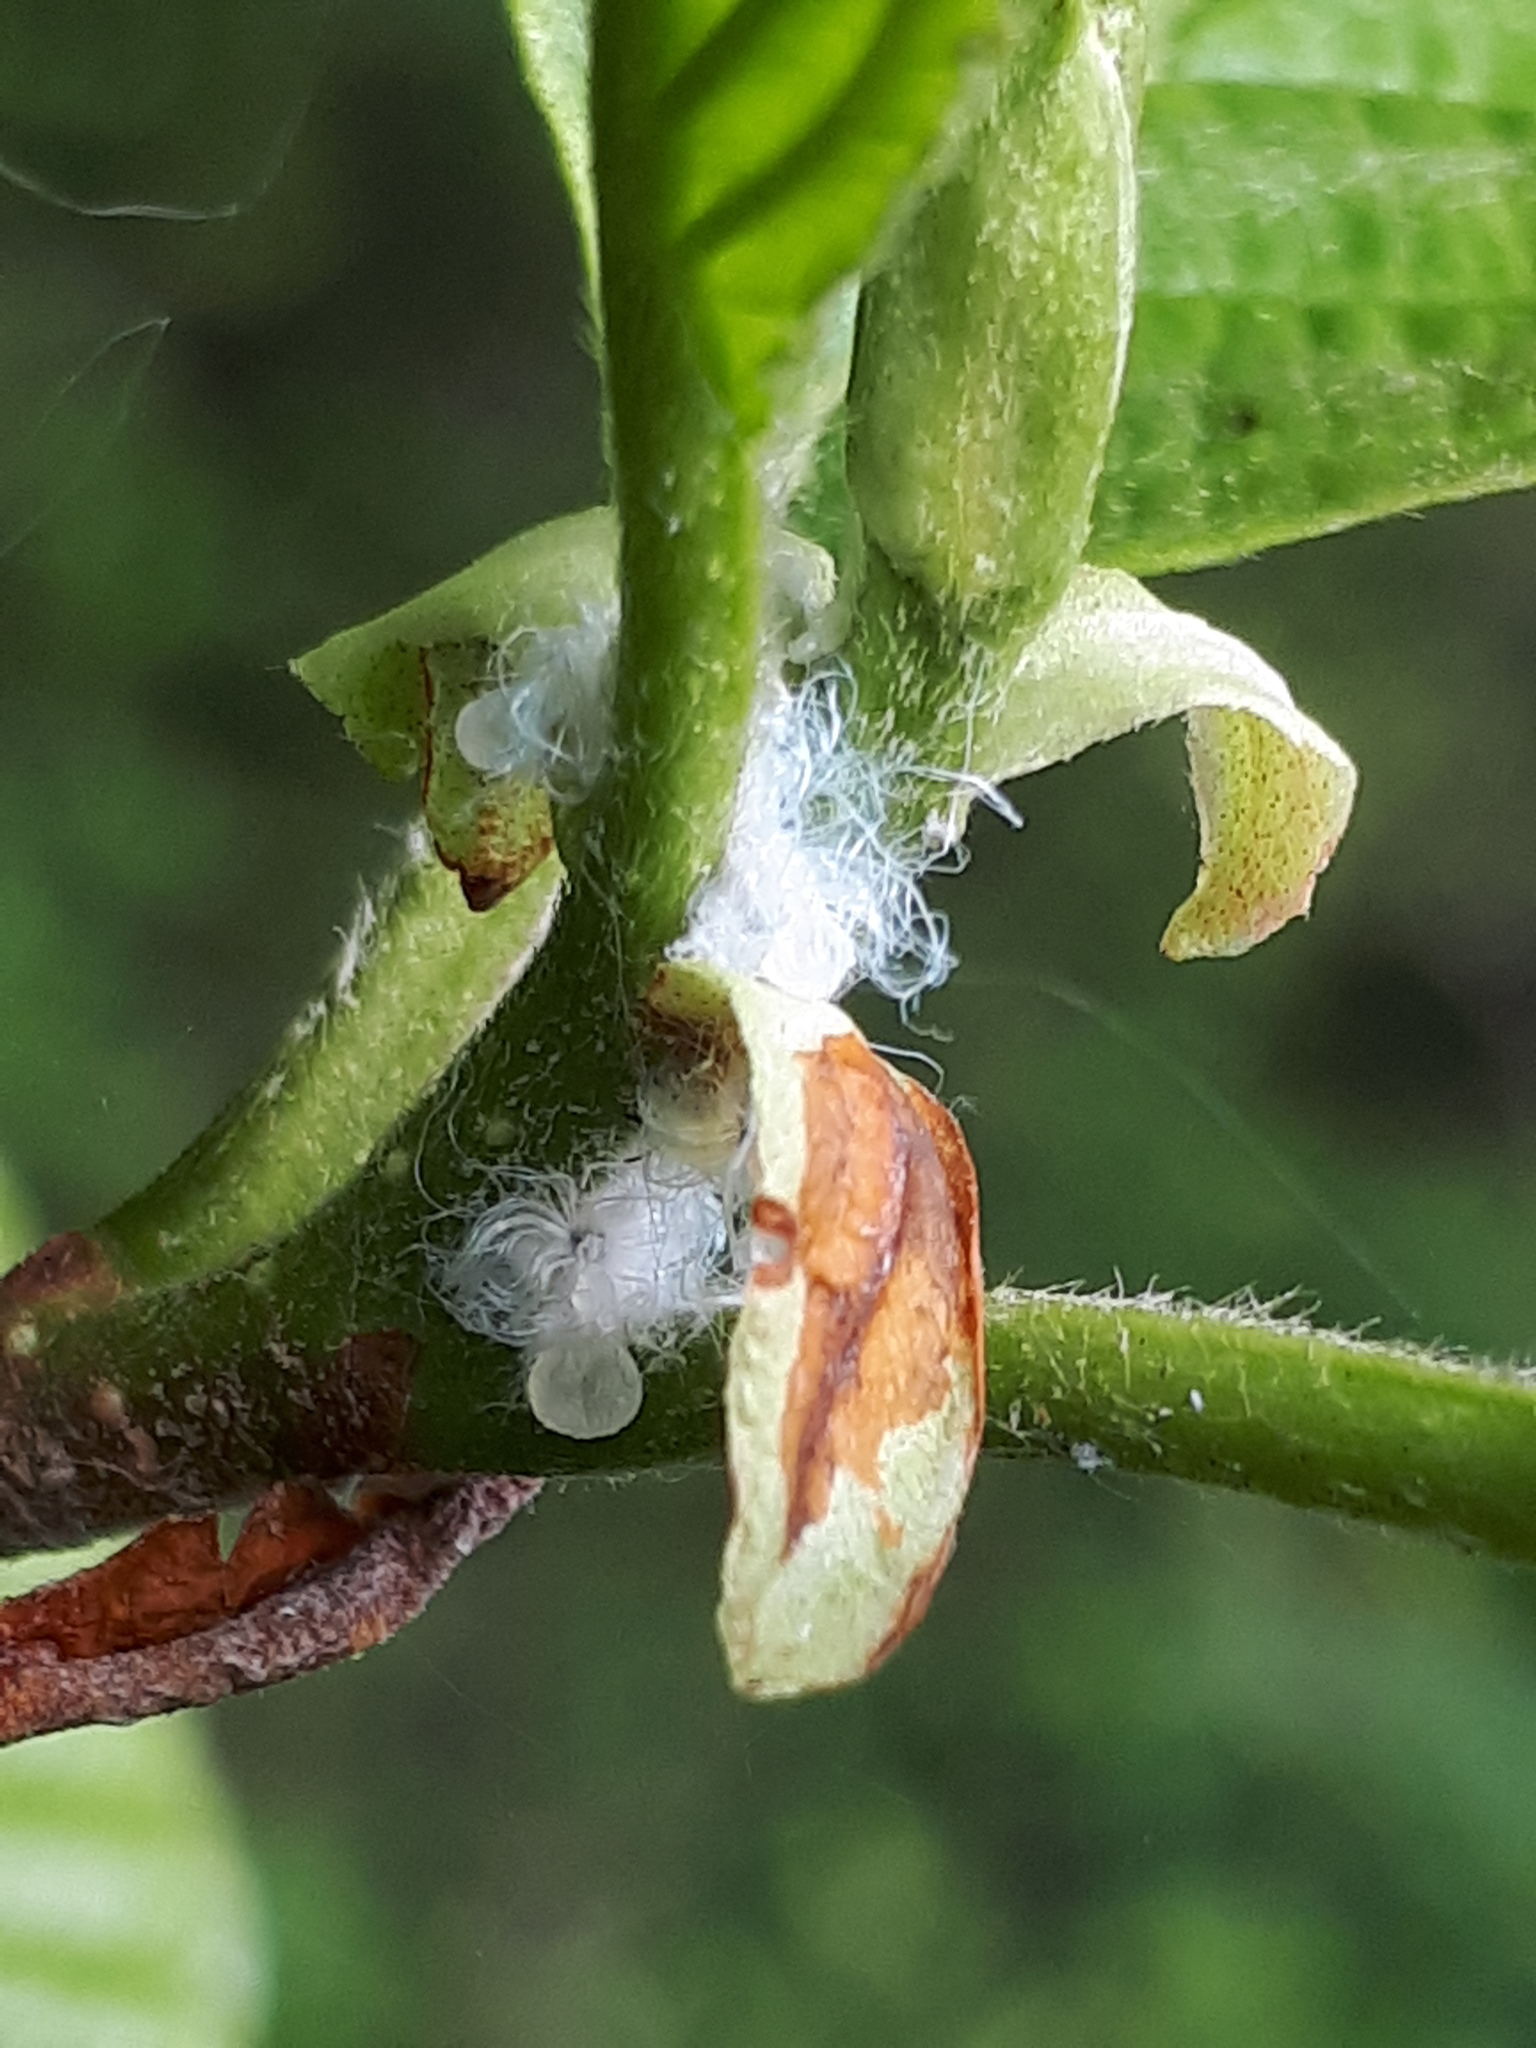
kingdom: Animalia
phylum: Arthropoda
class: Insecta
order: Hemiptera
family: Psyllidae
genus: Psylla
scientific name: Psylla alni
